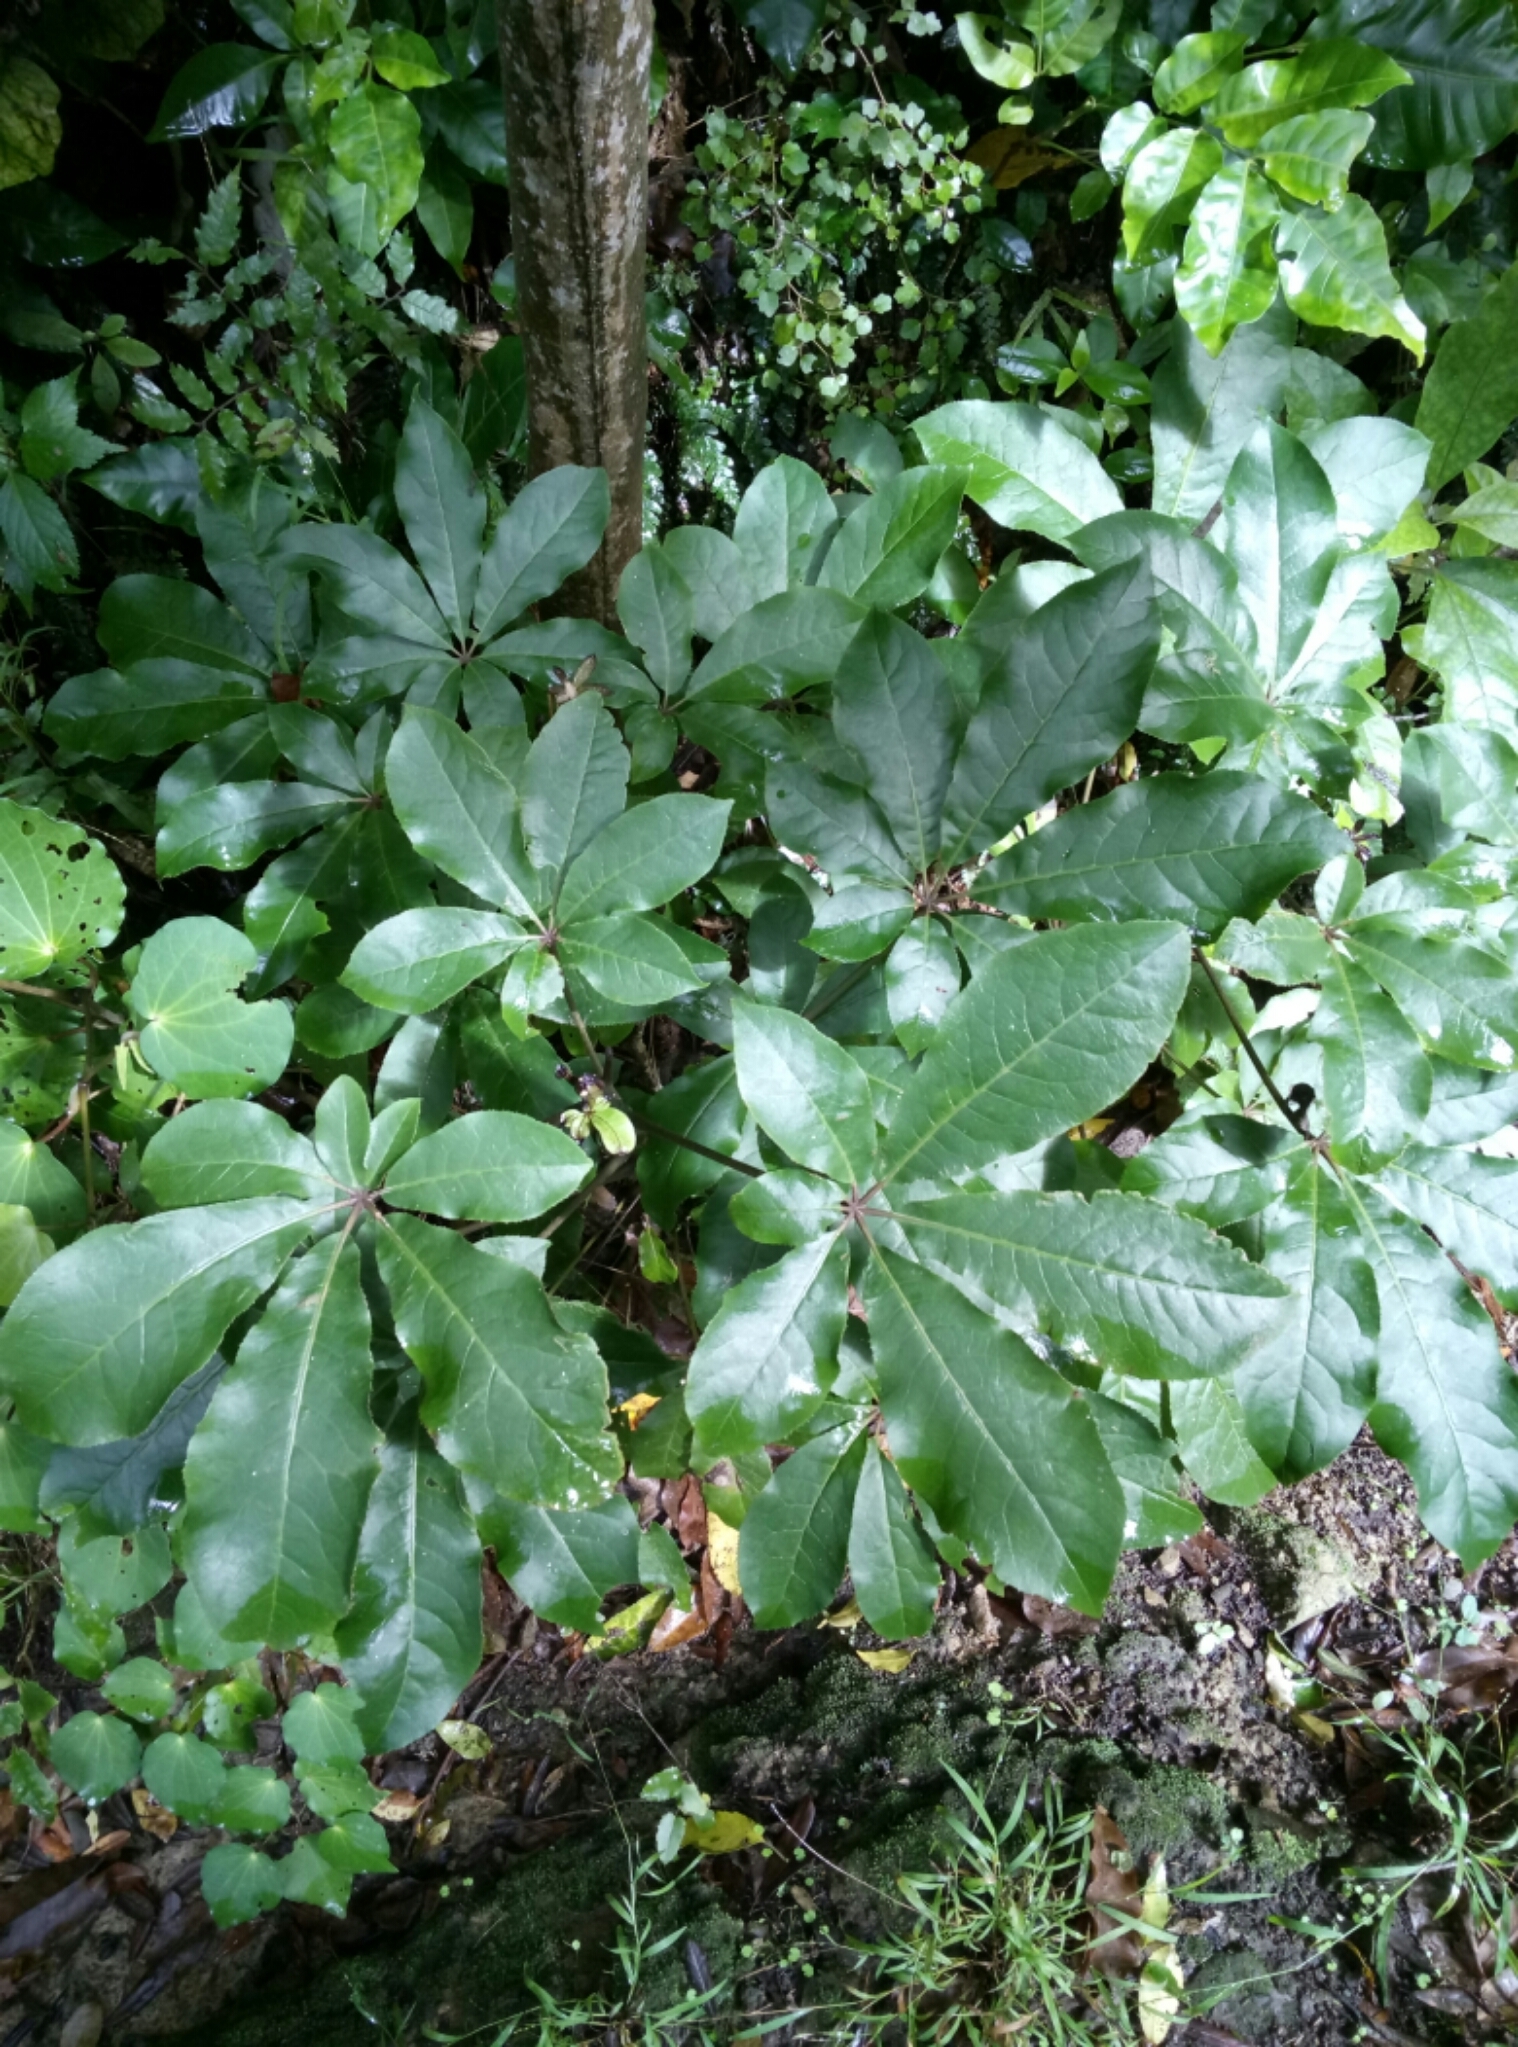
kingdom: Plantae
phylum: Tracheophyta
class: Magnoliopsida
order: Apiales
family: Araliaceae
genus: Schefflera
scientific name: Schefflera digitata
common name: Pate
